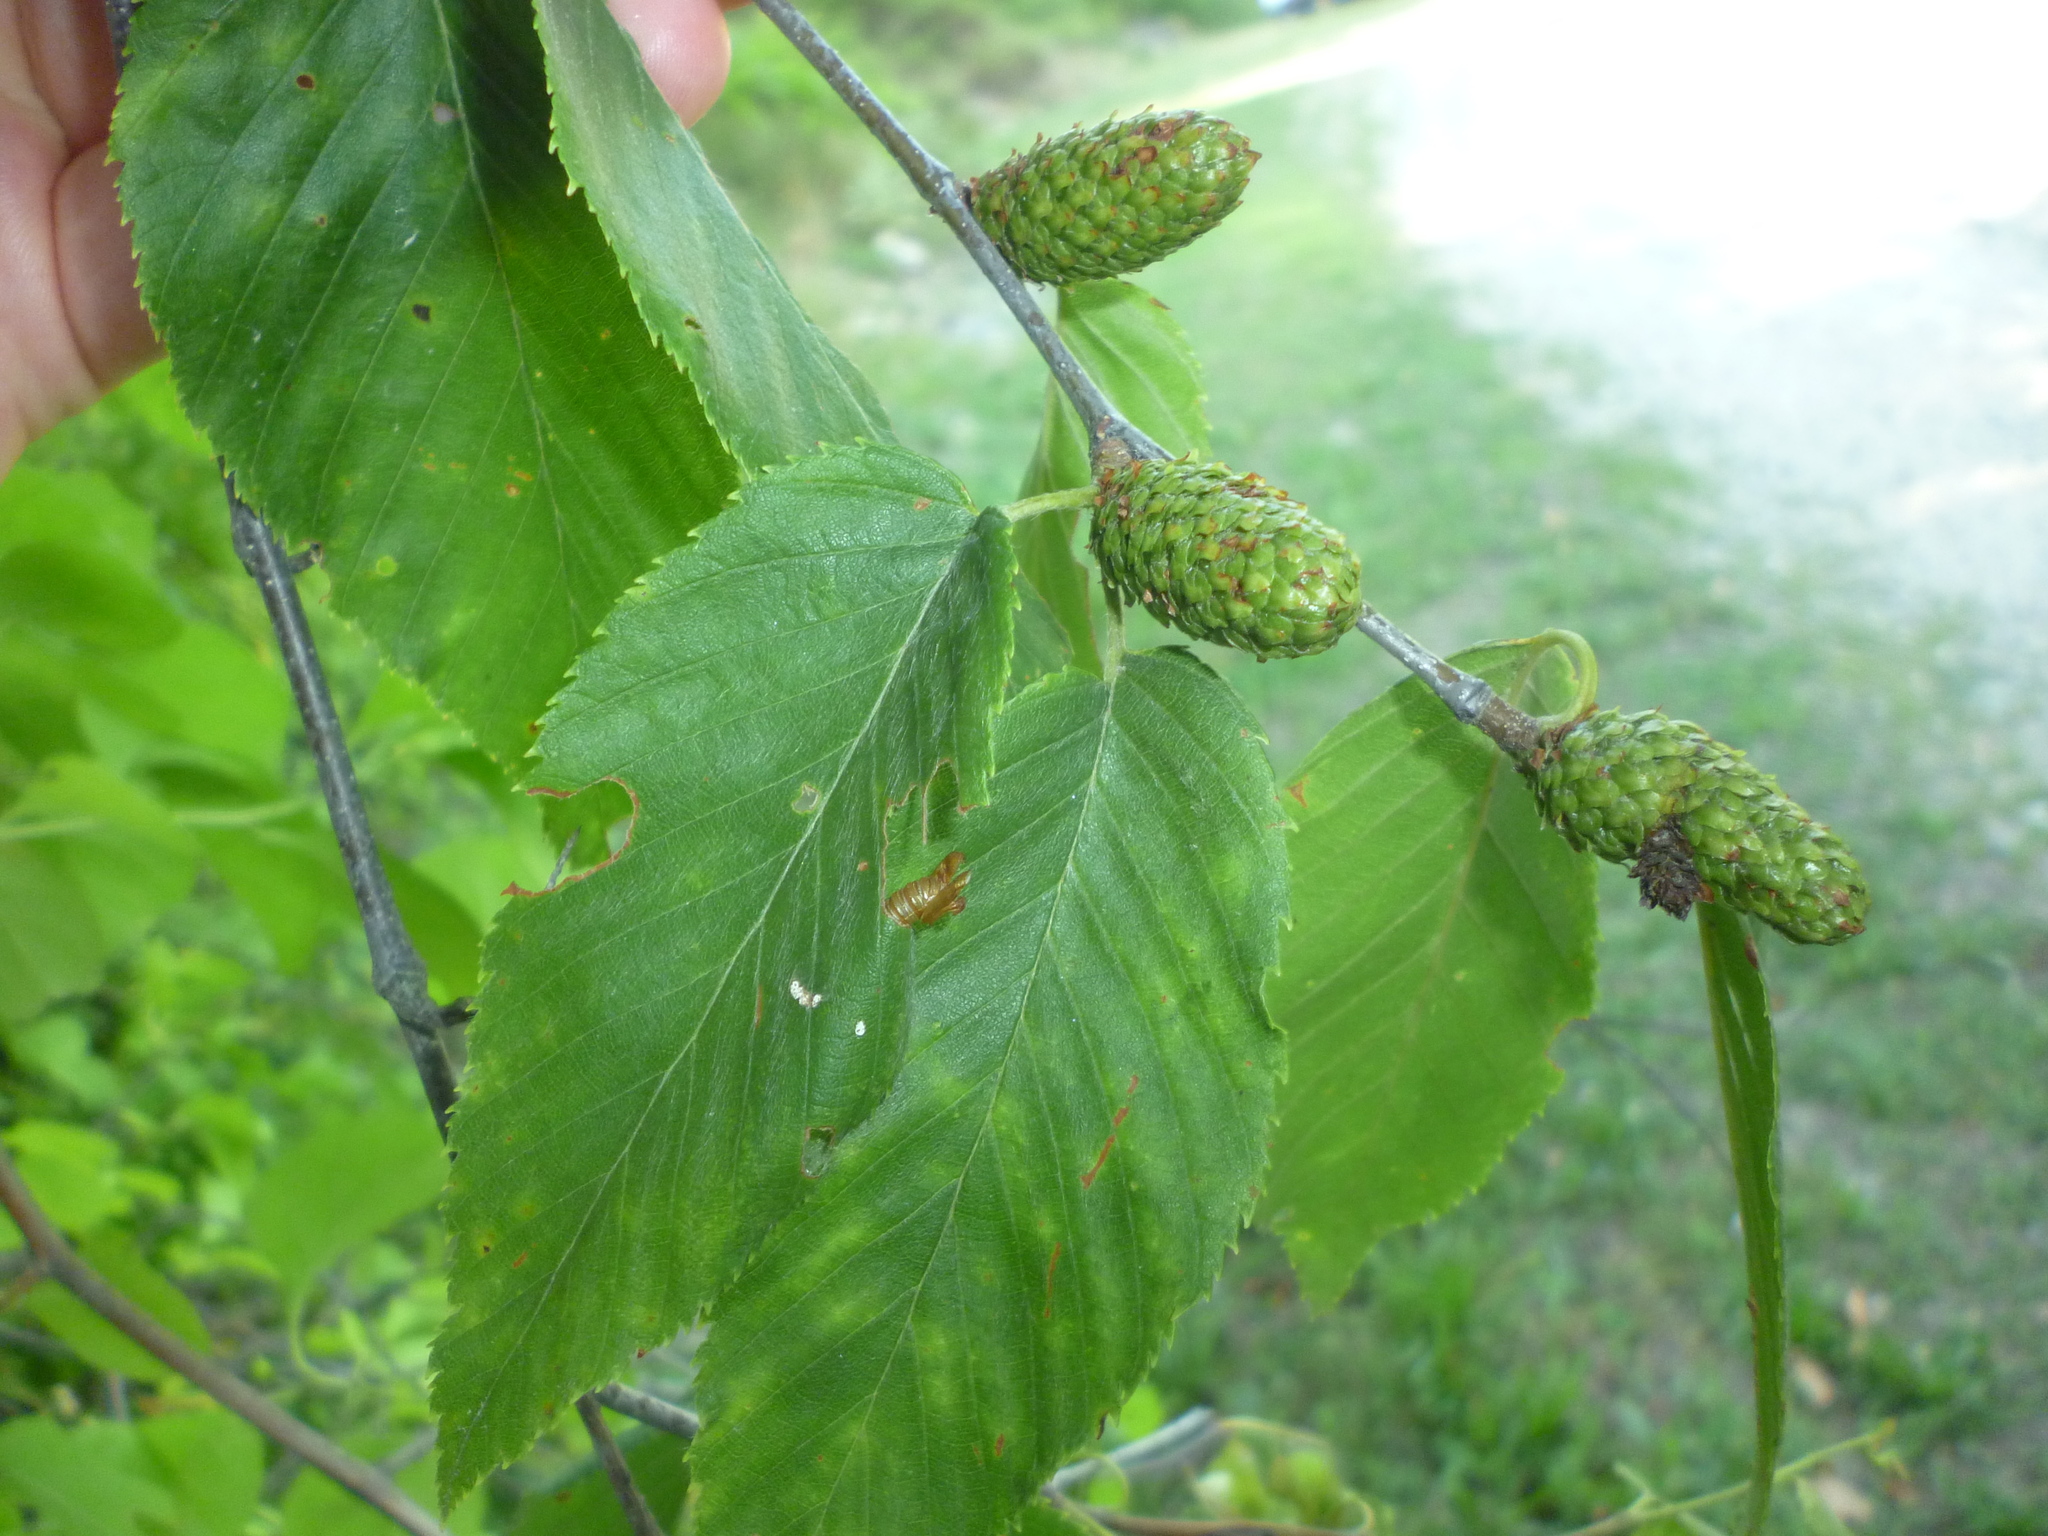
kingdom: Plantae
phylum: Tracheophyta
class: Magnoliopsida
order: Fagales
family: Betulaceae
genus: Betula
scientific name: Betula lenta
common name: Black birch
